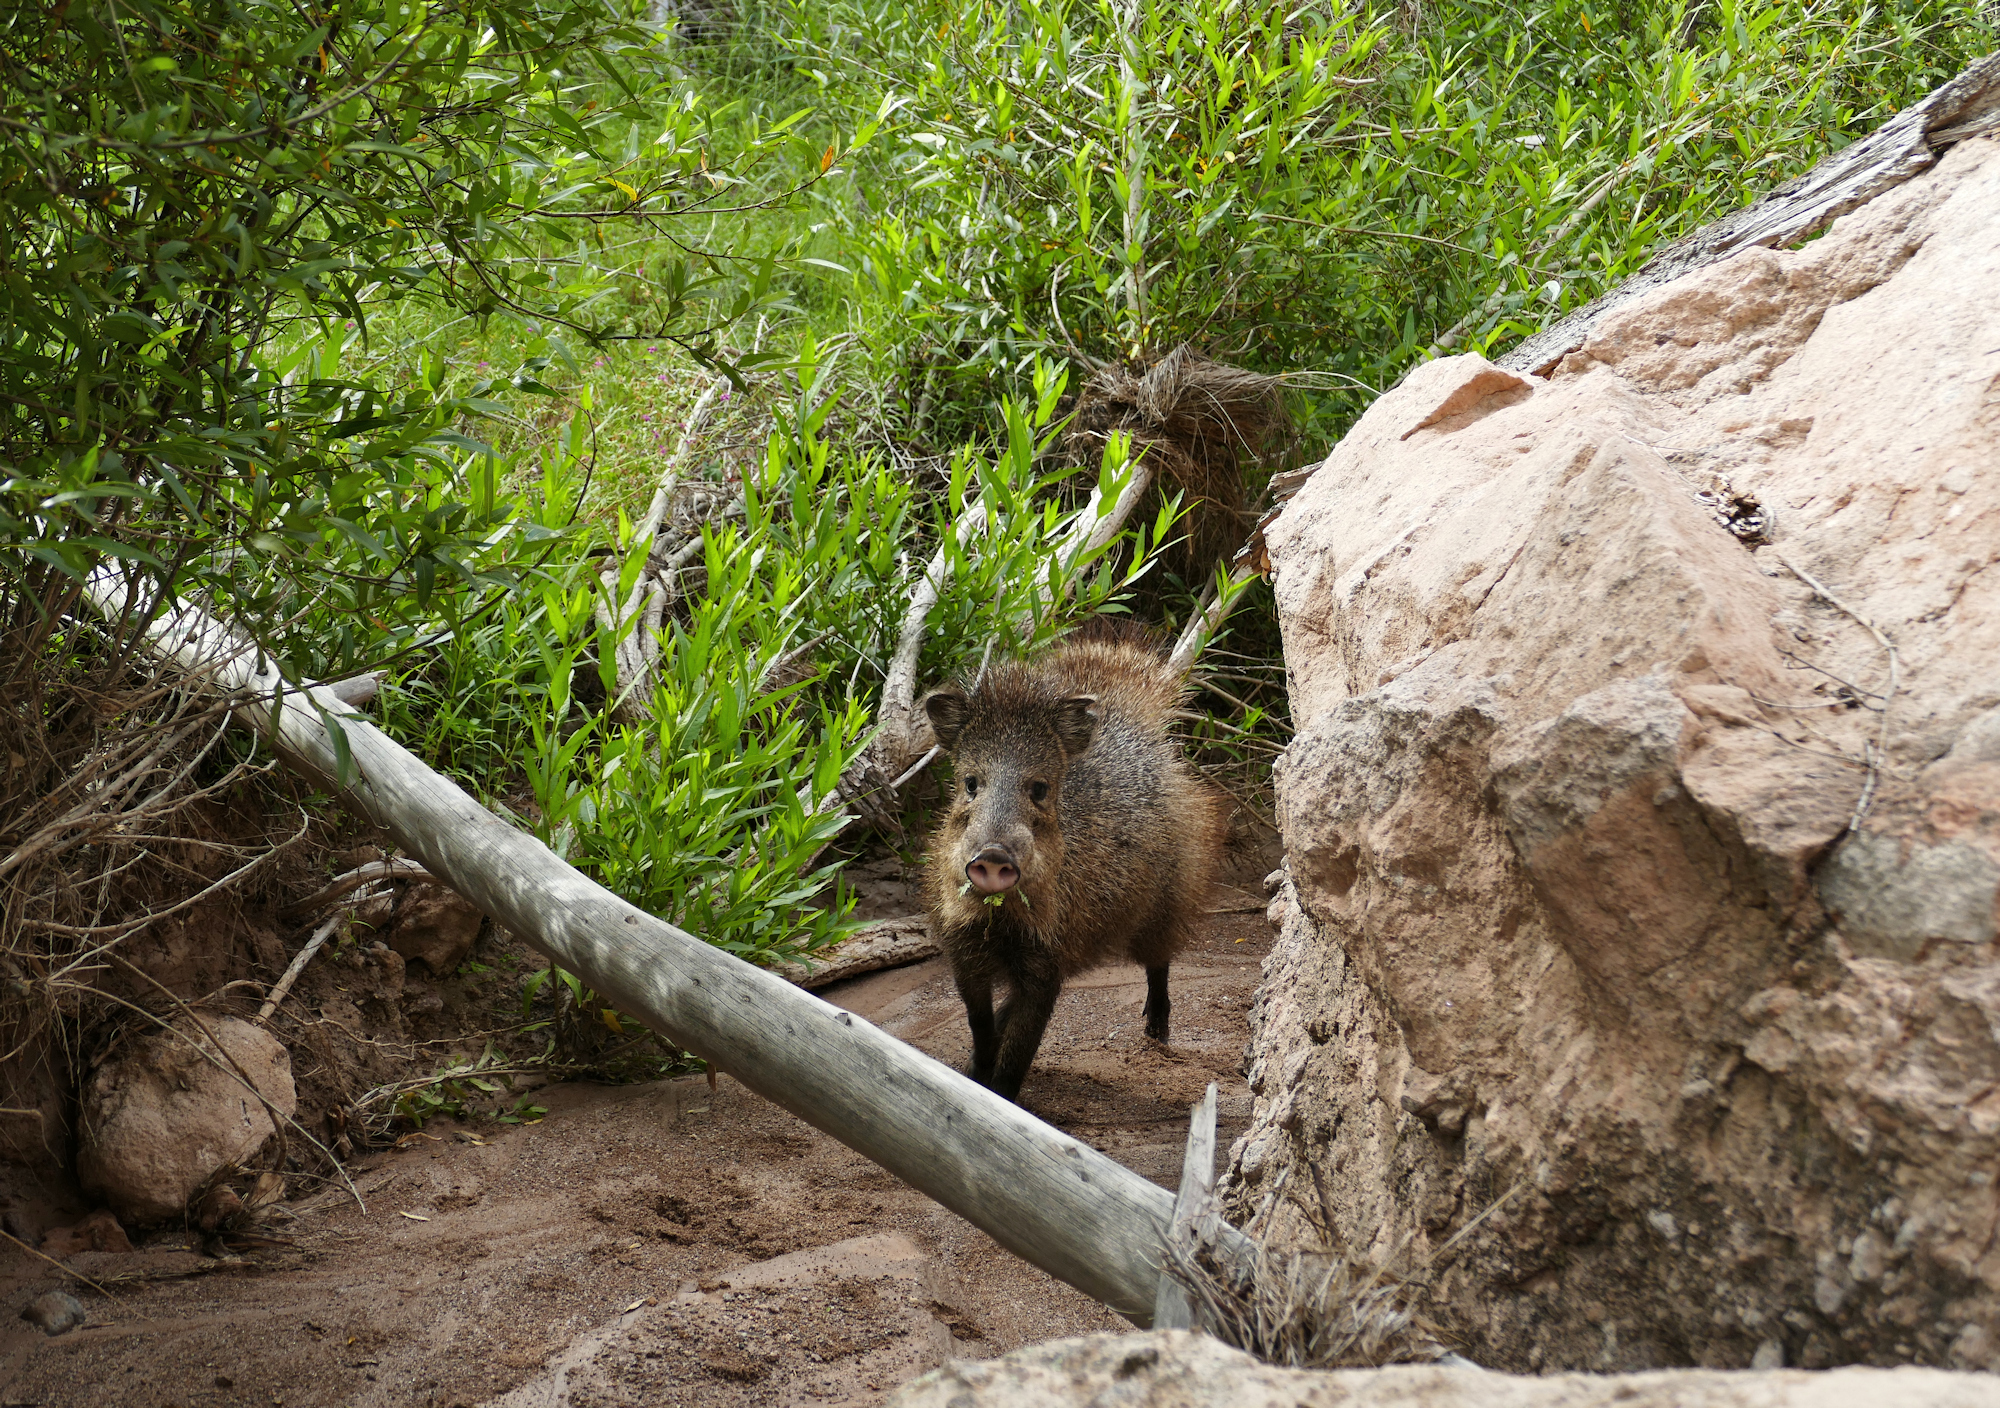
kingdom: Animalia
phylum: Chordata
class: Mammalia
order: Artiodactyla
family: Tayassuidae
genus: Pecari
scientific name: Pecari tajacu
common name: Collared peccary
